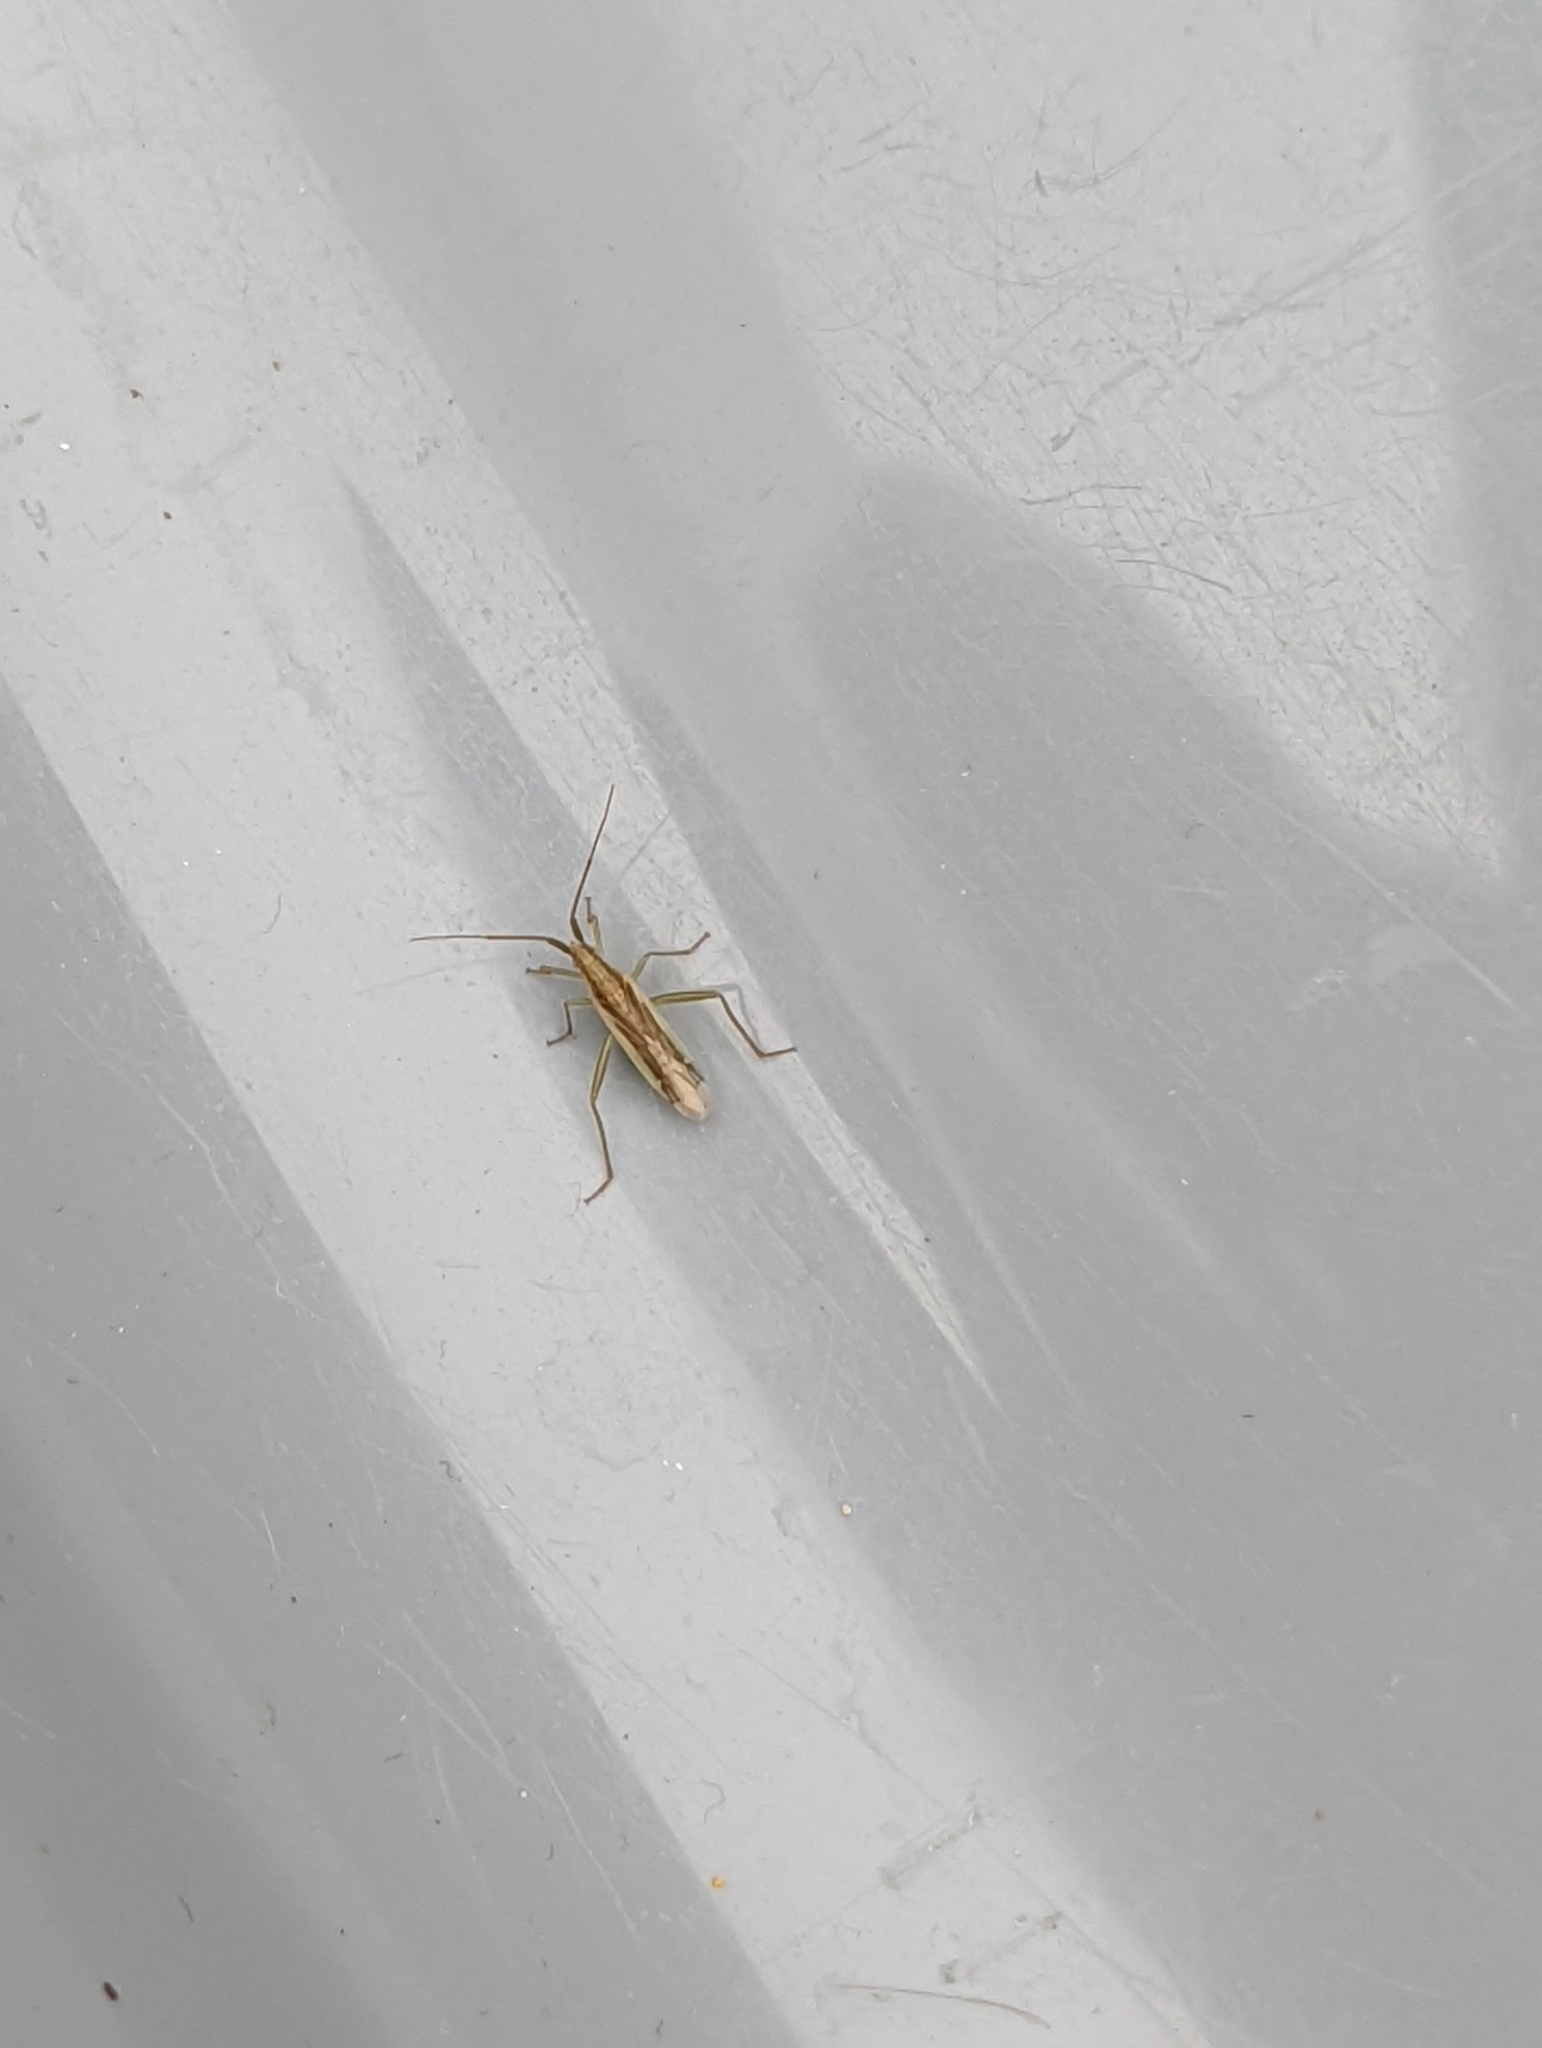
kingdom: Animalia
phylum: Arthropoda
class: Insecta
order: Hemiptera
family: Miridae
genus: Stenodema
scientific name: Stenodema laevigata
